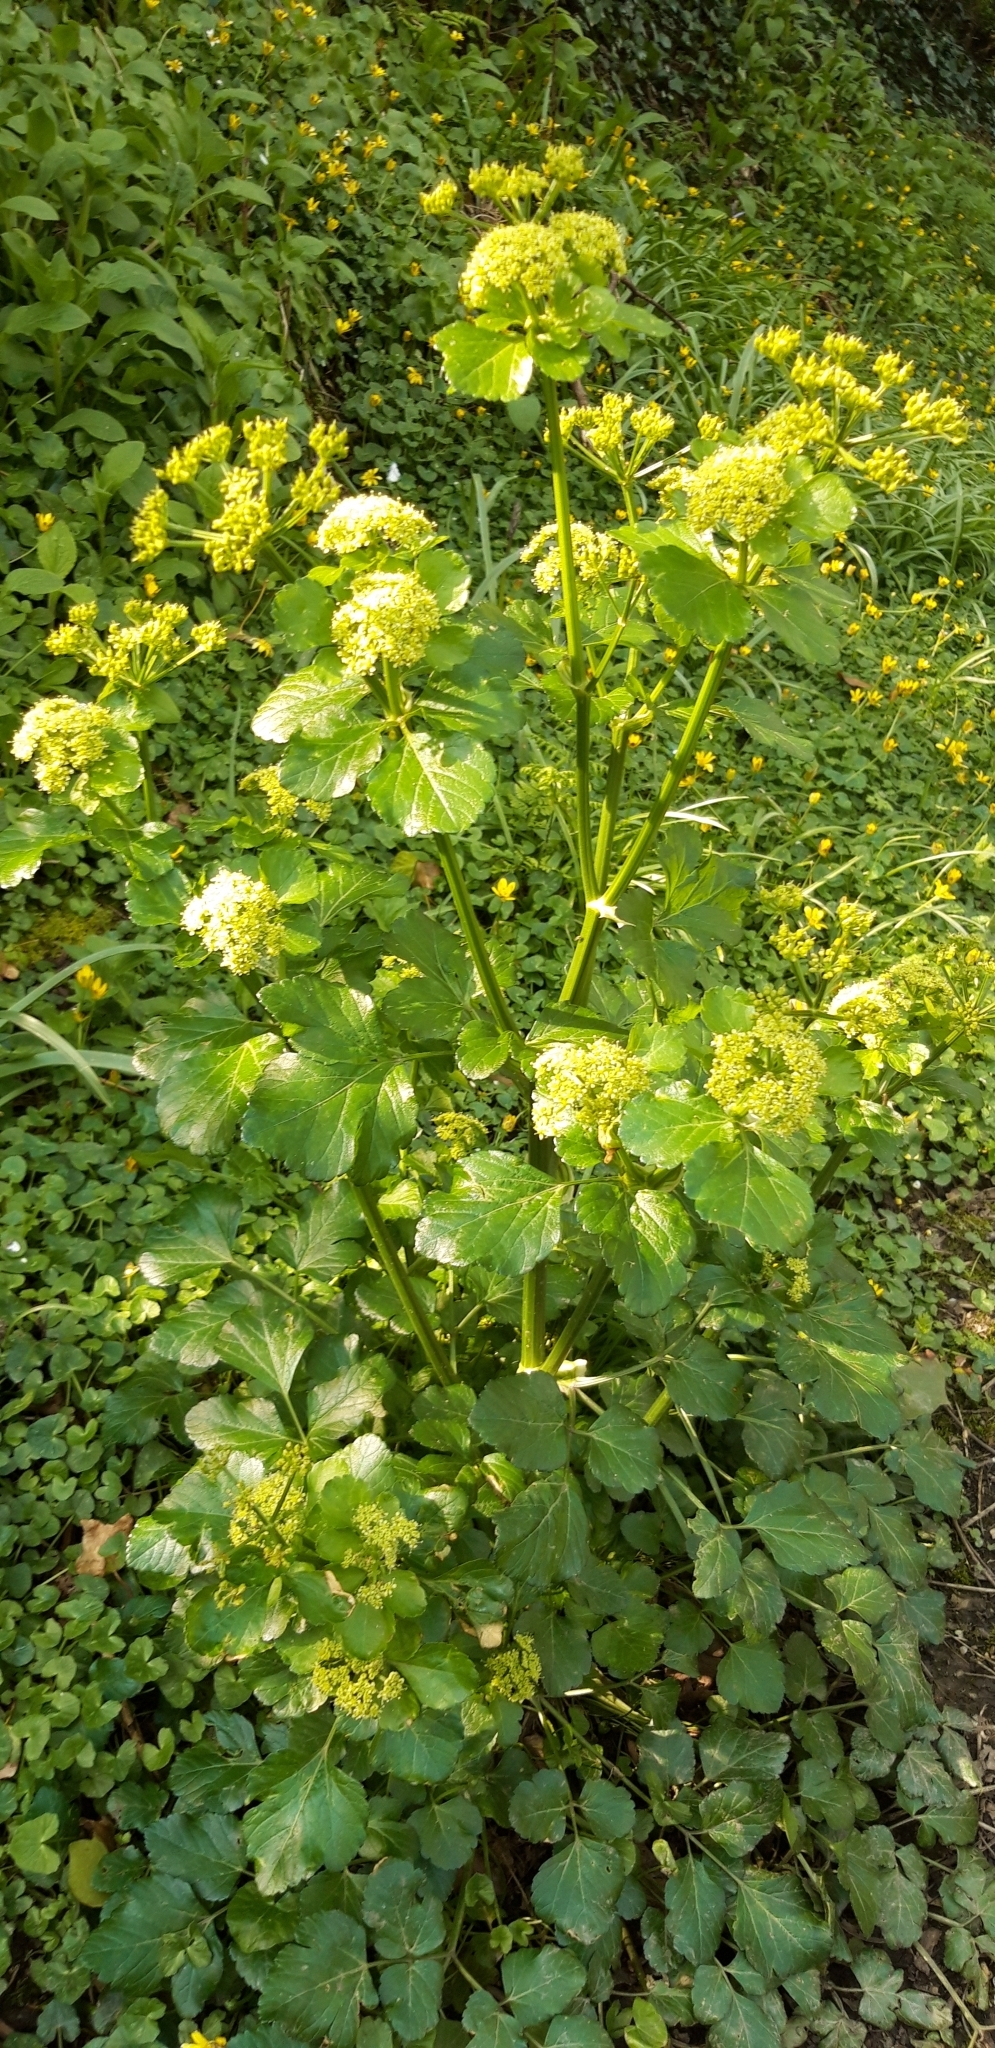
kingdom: Plantae
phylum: Tracheophyta
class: Magnoliopsida
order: Apiales
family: Apiaceae
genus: Smyrnium
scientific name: Smyrnium olusatrum
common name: Alexanders
